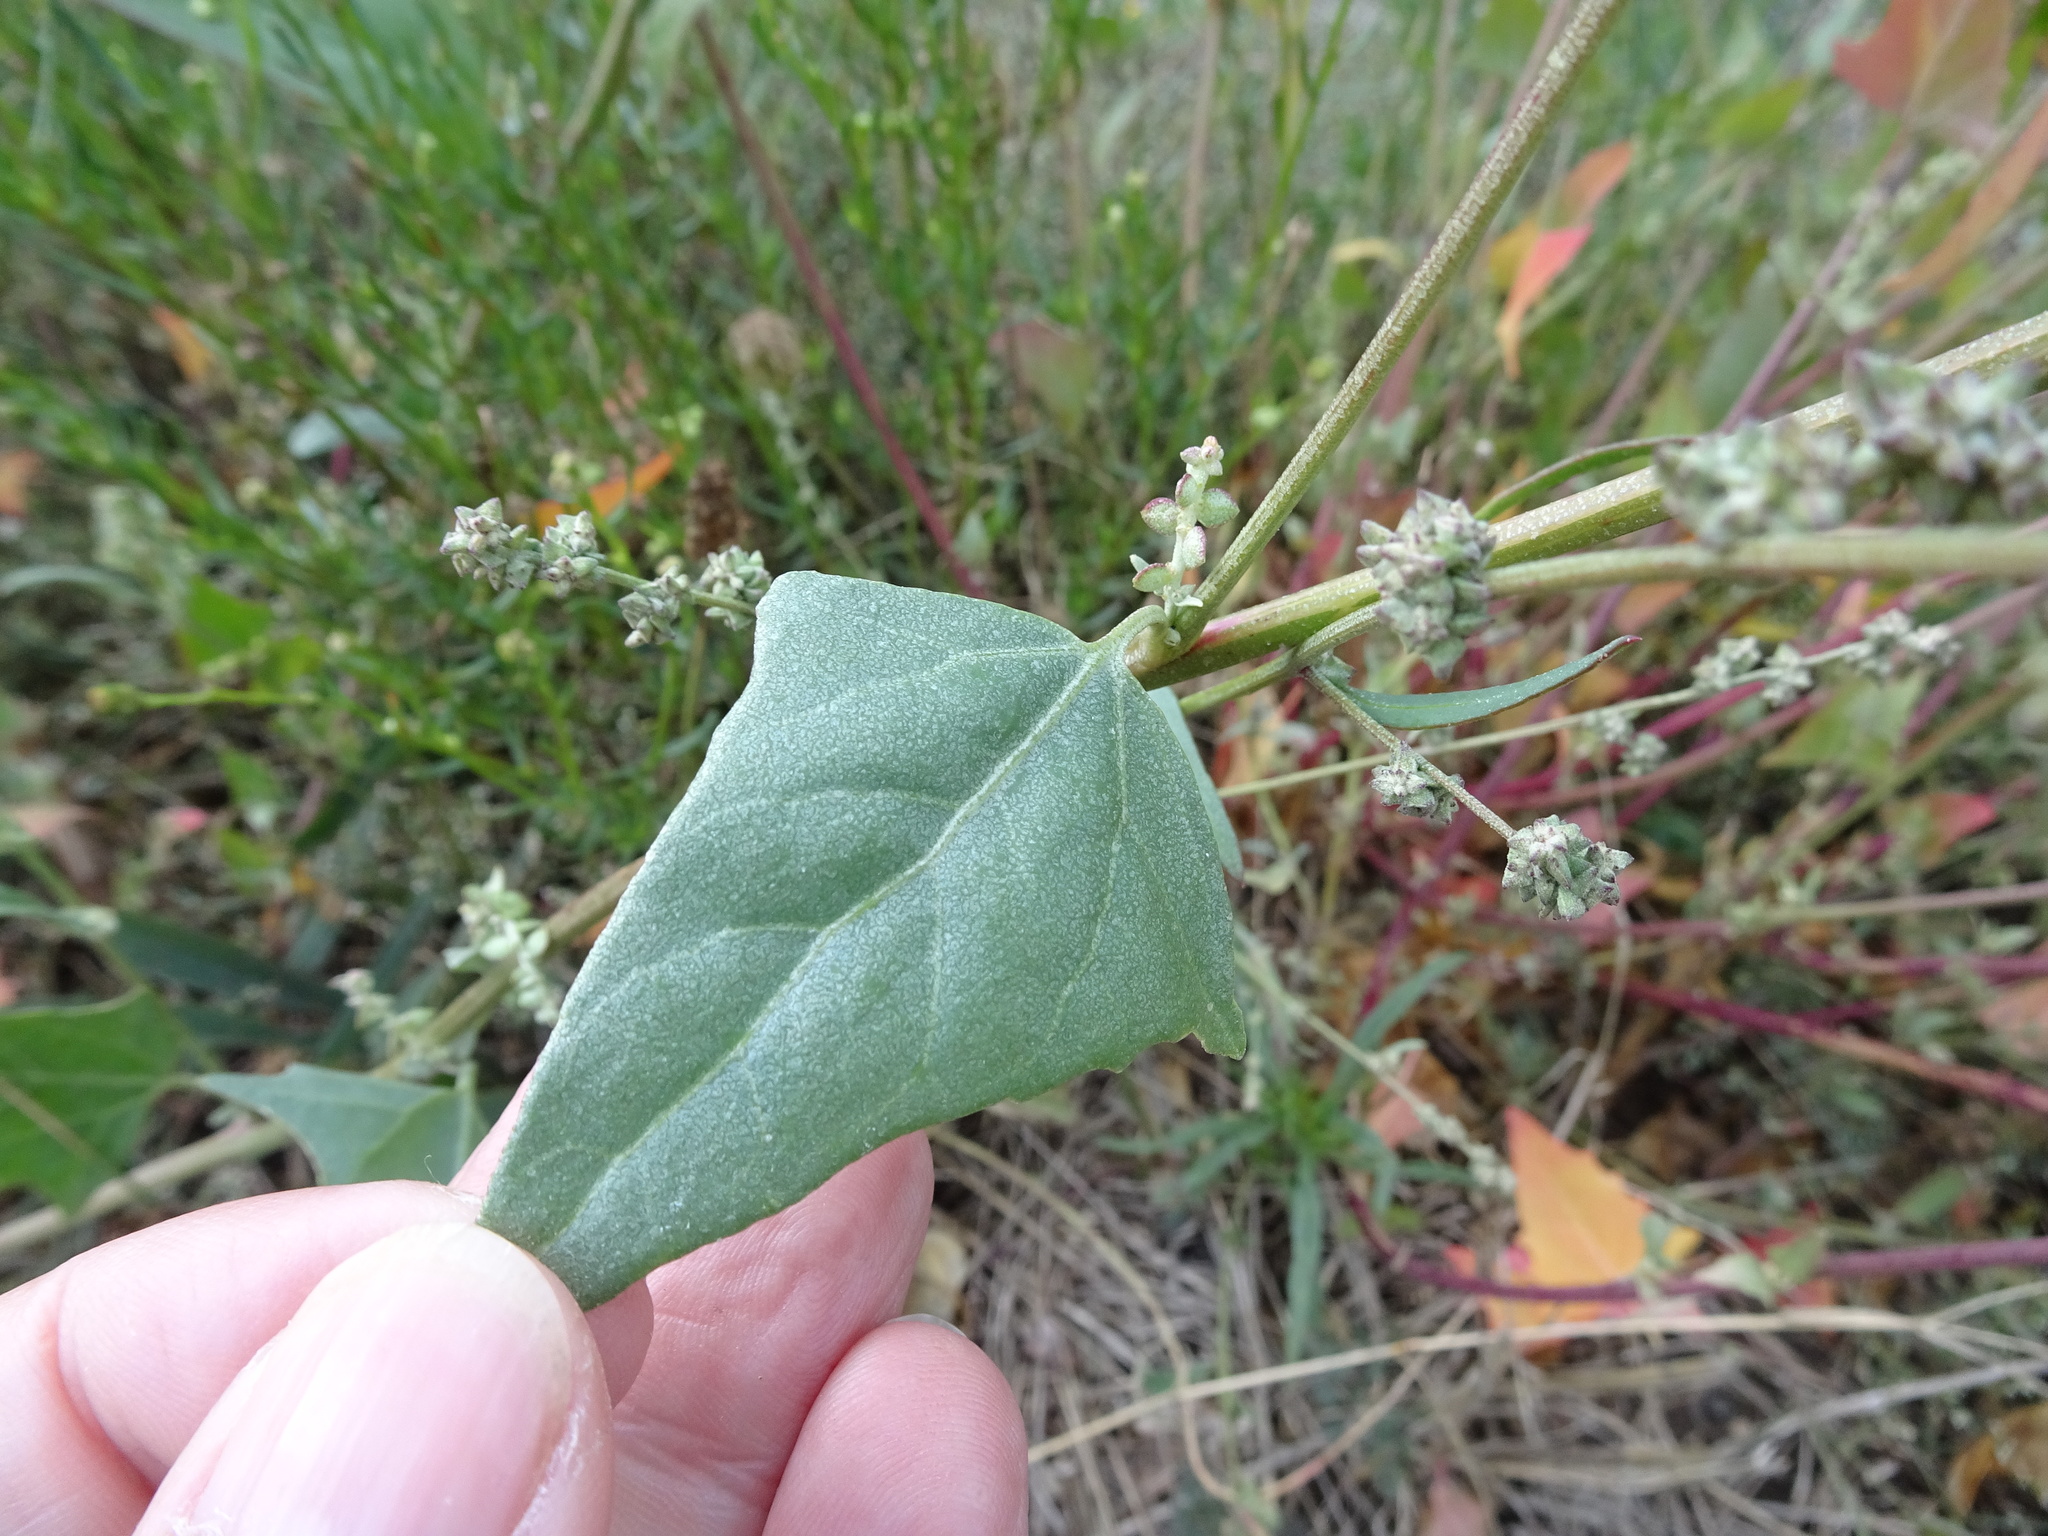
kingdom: Plantae
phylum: Tracheophyta
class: Magnoliopsida
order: Caryophyllales
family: Amaranthaceae
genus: Atriplex
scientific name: Atriplex micrantha
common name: Twoscale saltbush
